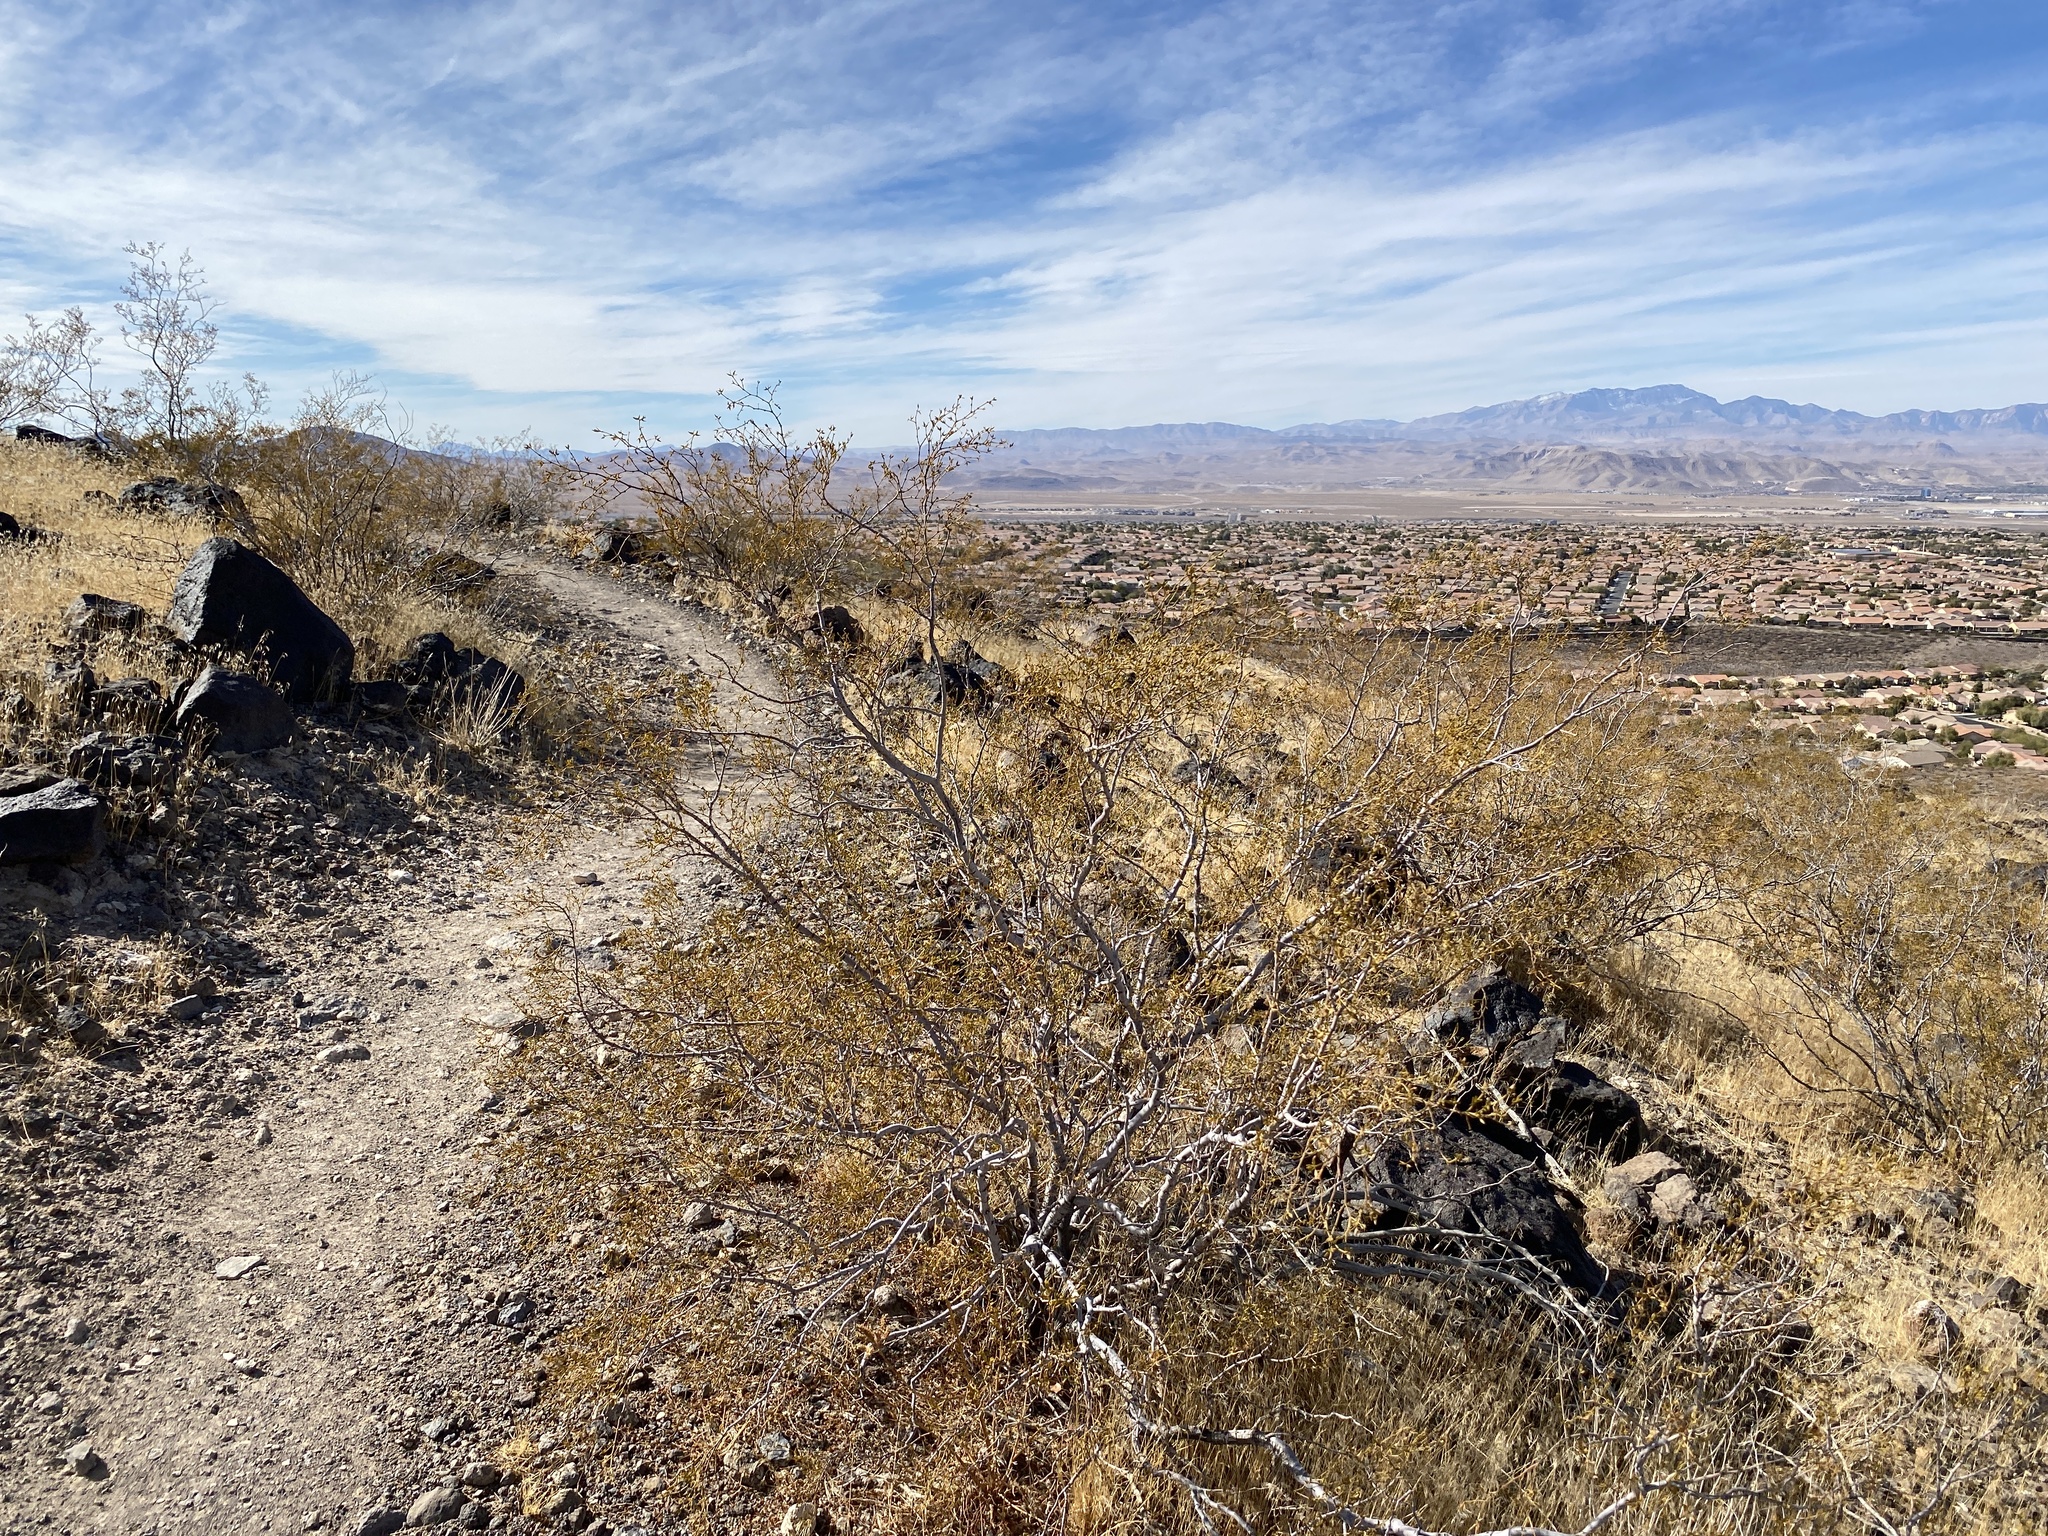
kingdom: Plantae
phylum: Tracheophyta
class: Magnoliopsida
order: Zygophyllales
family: Zygophyllaceae
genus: Larrea
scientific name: Larrea tridentata
